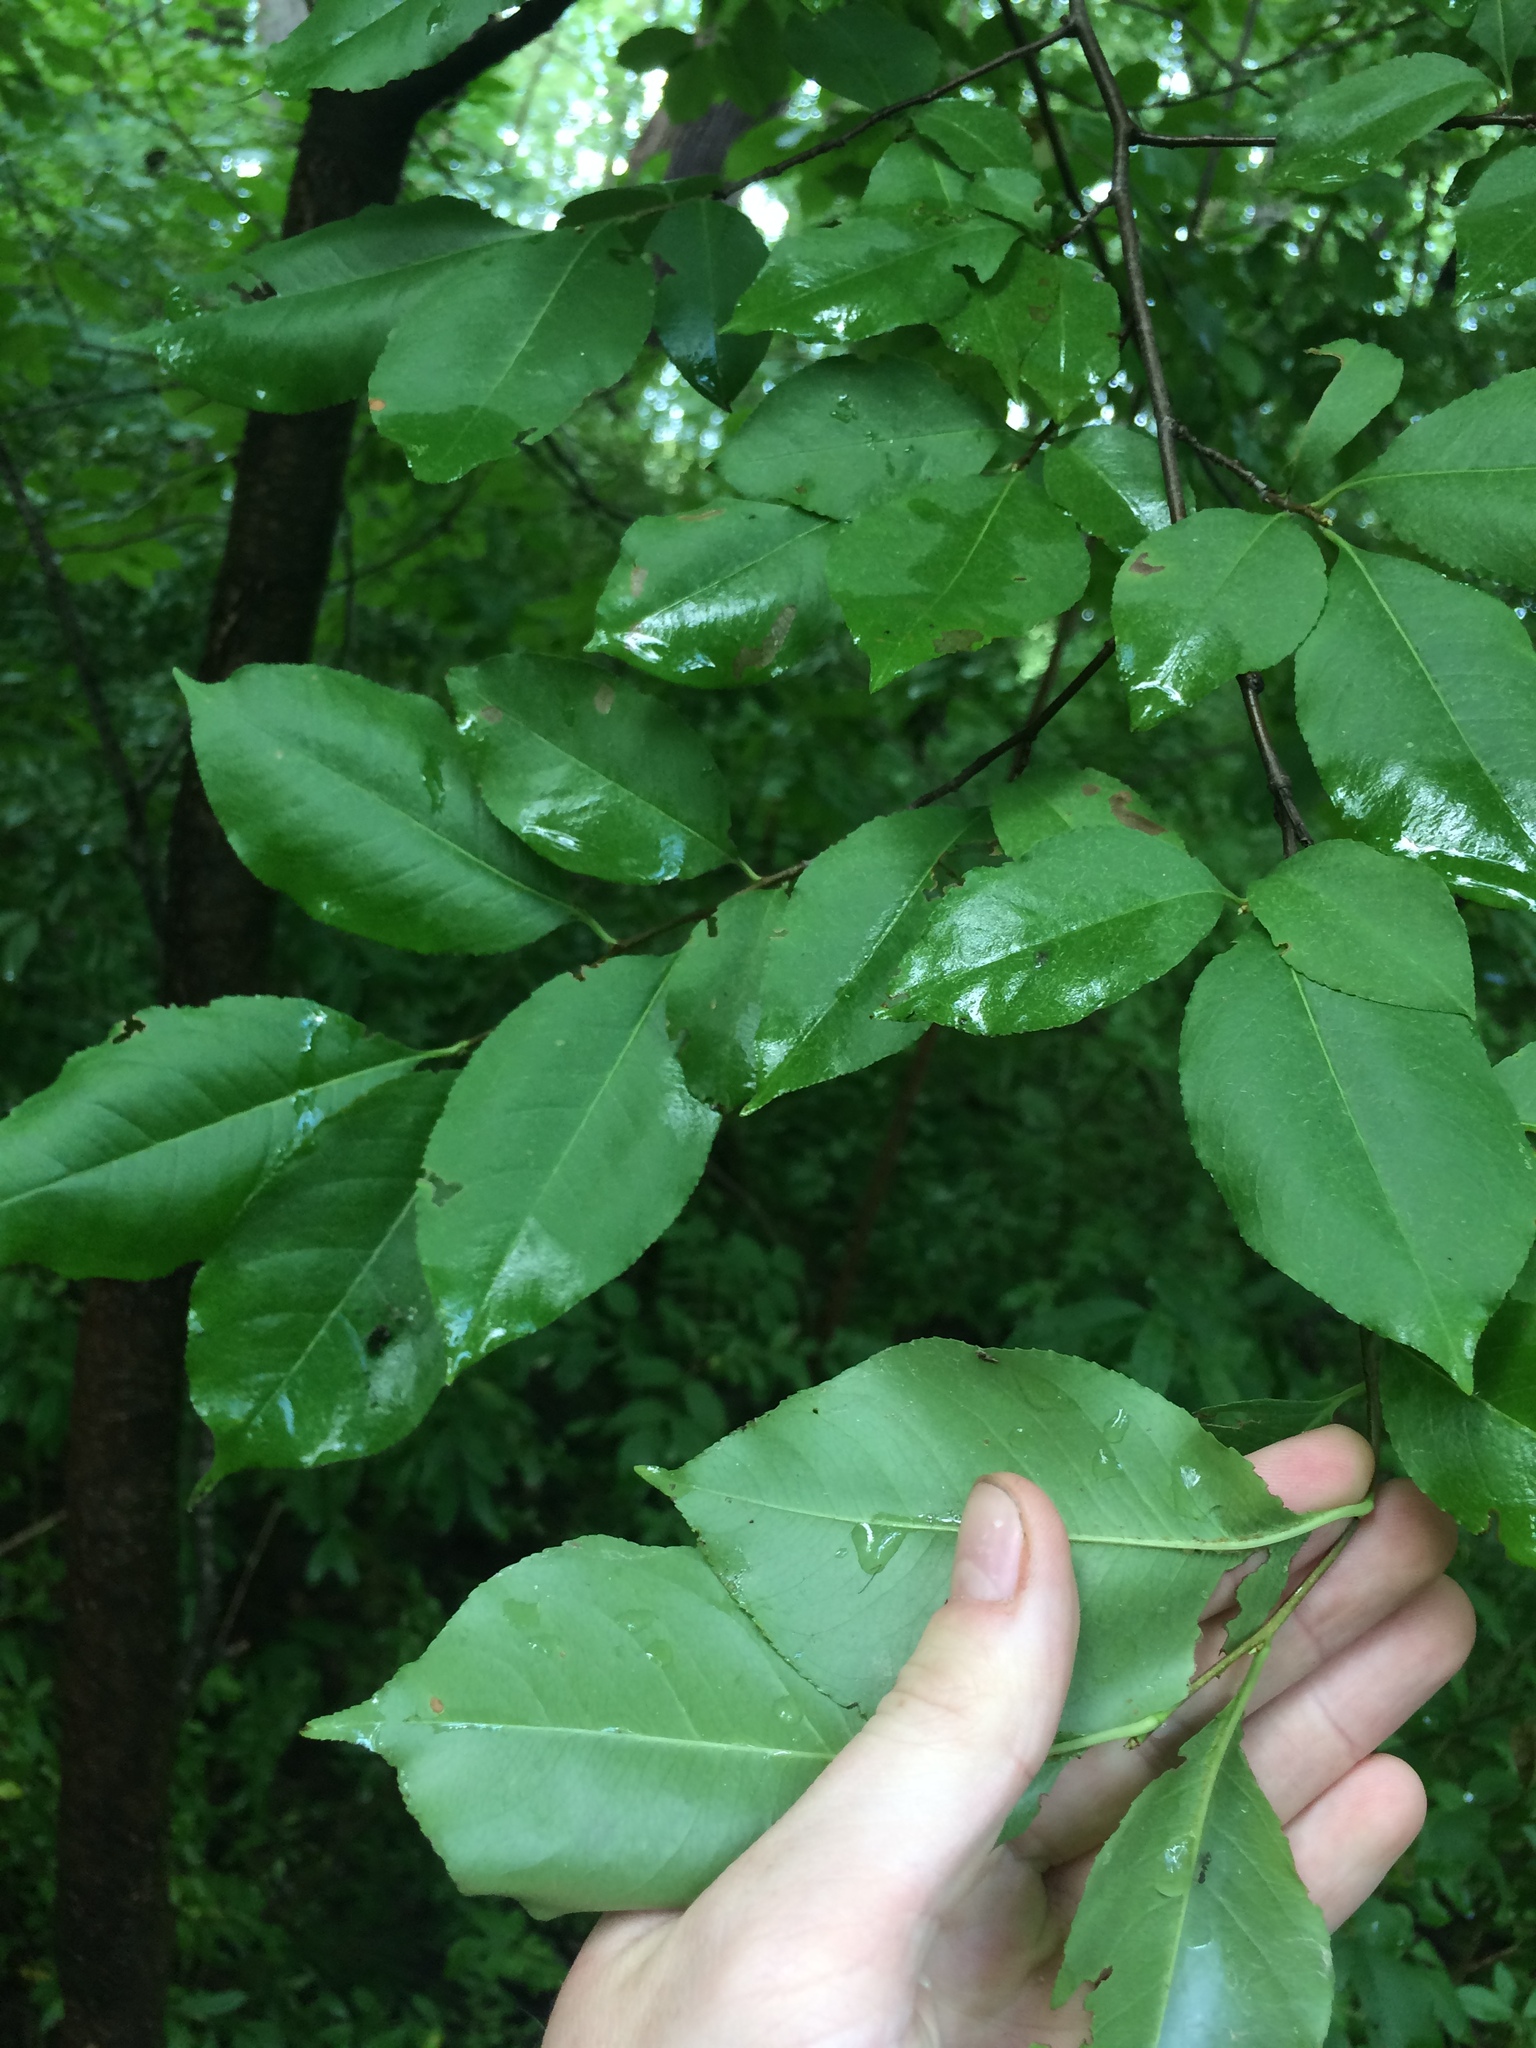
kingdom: Plantae
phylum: Tracheophyta
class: Magnoliopsida
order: Rosales
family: Rosaceae
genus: Prunus
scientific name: Prunus serotina
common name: Black cherry
